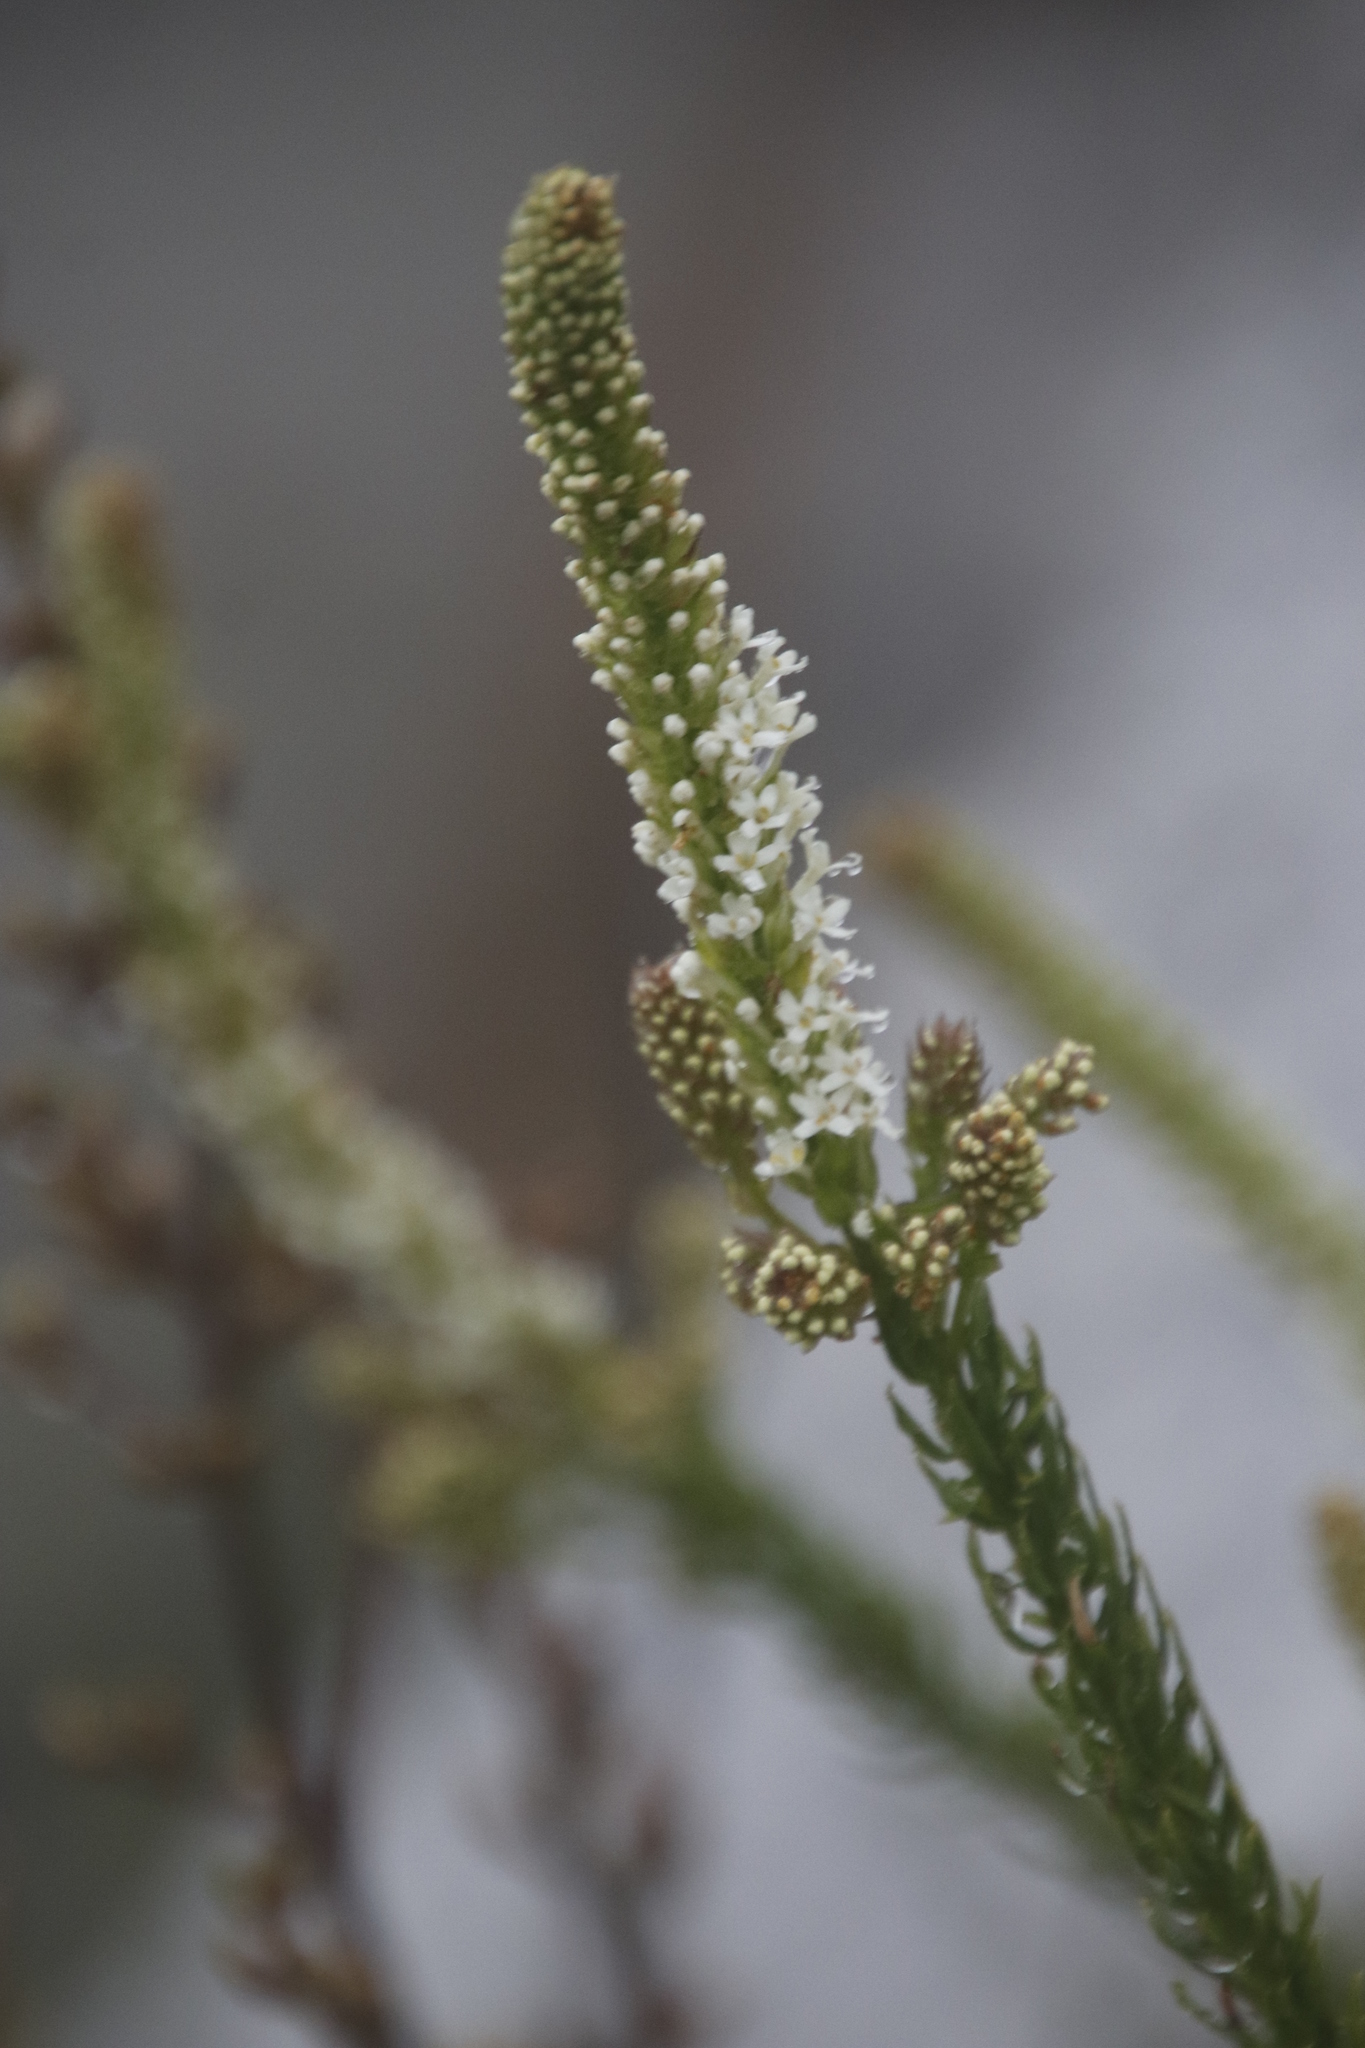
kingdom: Plantae
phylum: Tracheophyta
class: Magnoliopsida
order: Lamiales
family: Scrophulariaceae
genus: Selago
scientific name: Selago hispida
